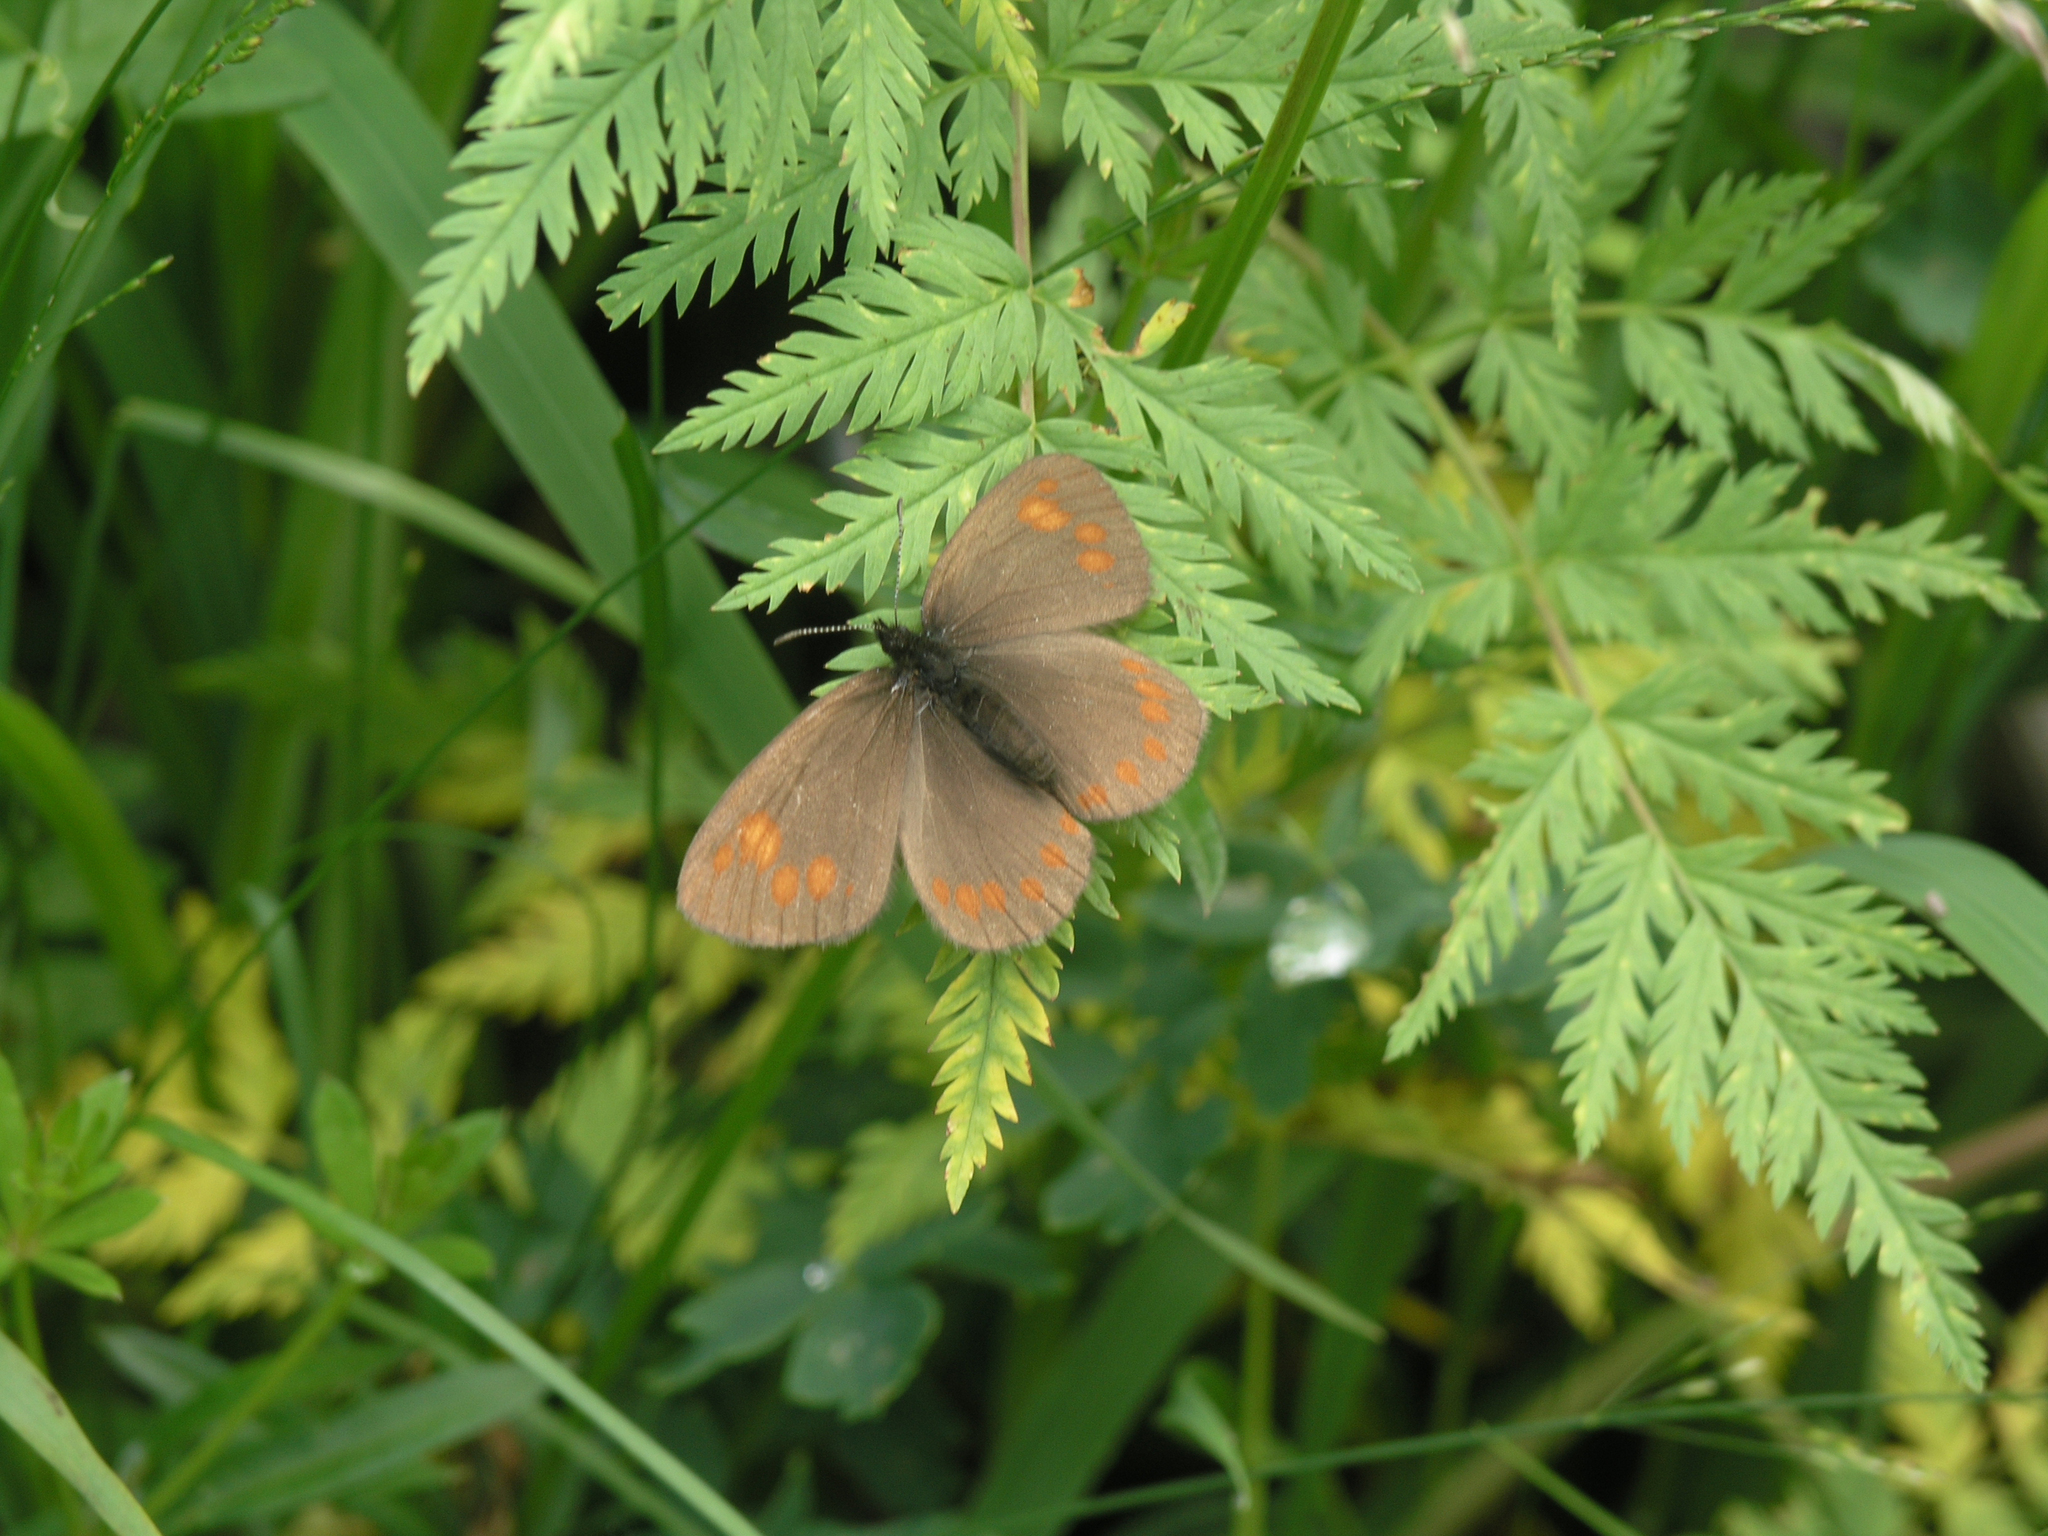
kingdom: Animalia
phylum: Arthropoda
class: Insecta
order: Lepidoptera
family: Nymphalidae
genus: Erebia
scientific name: Erebia turanica
